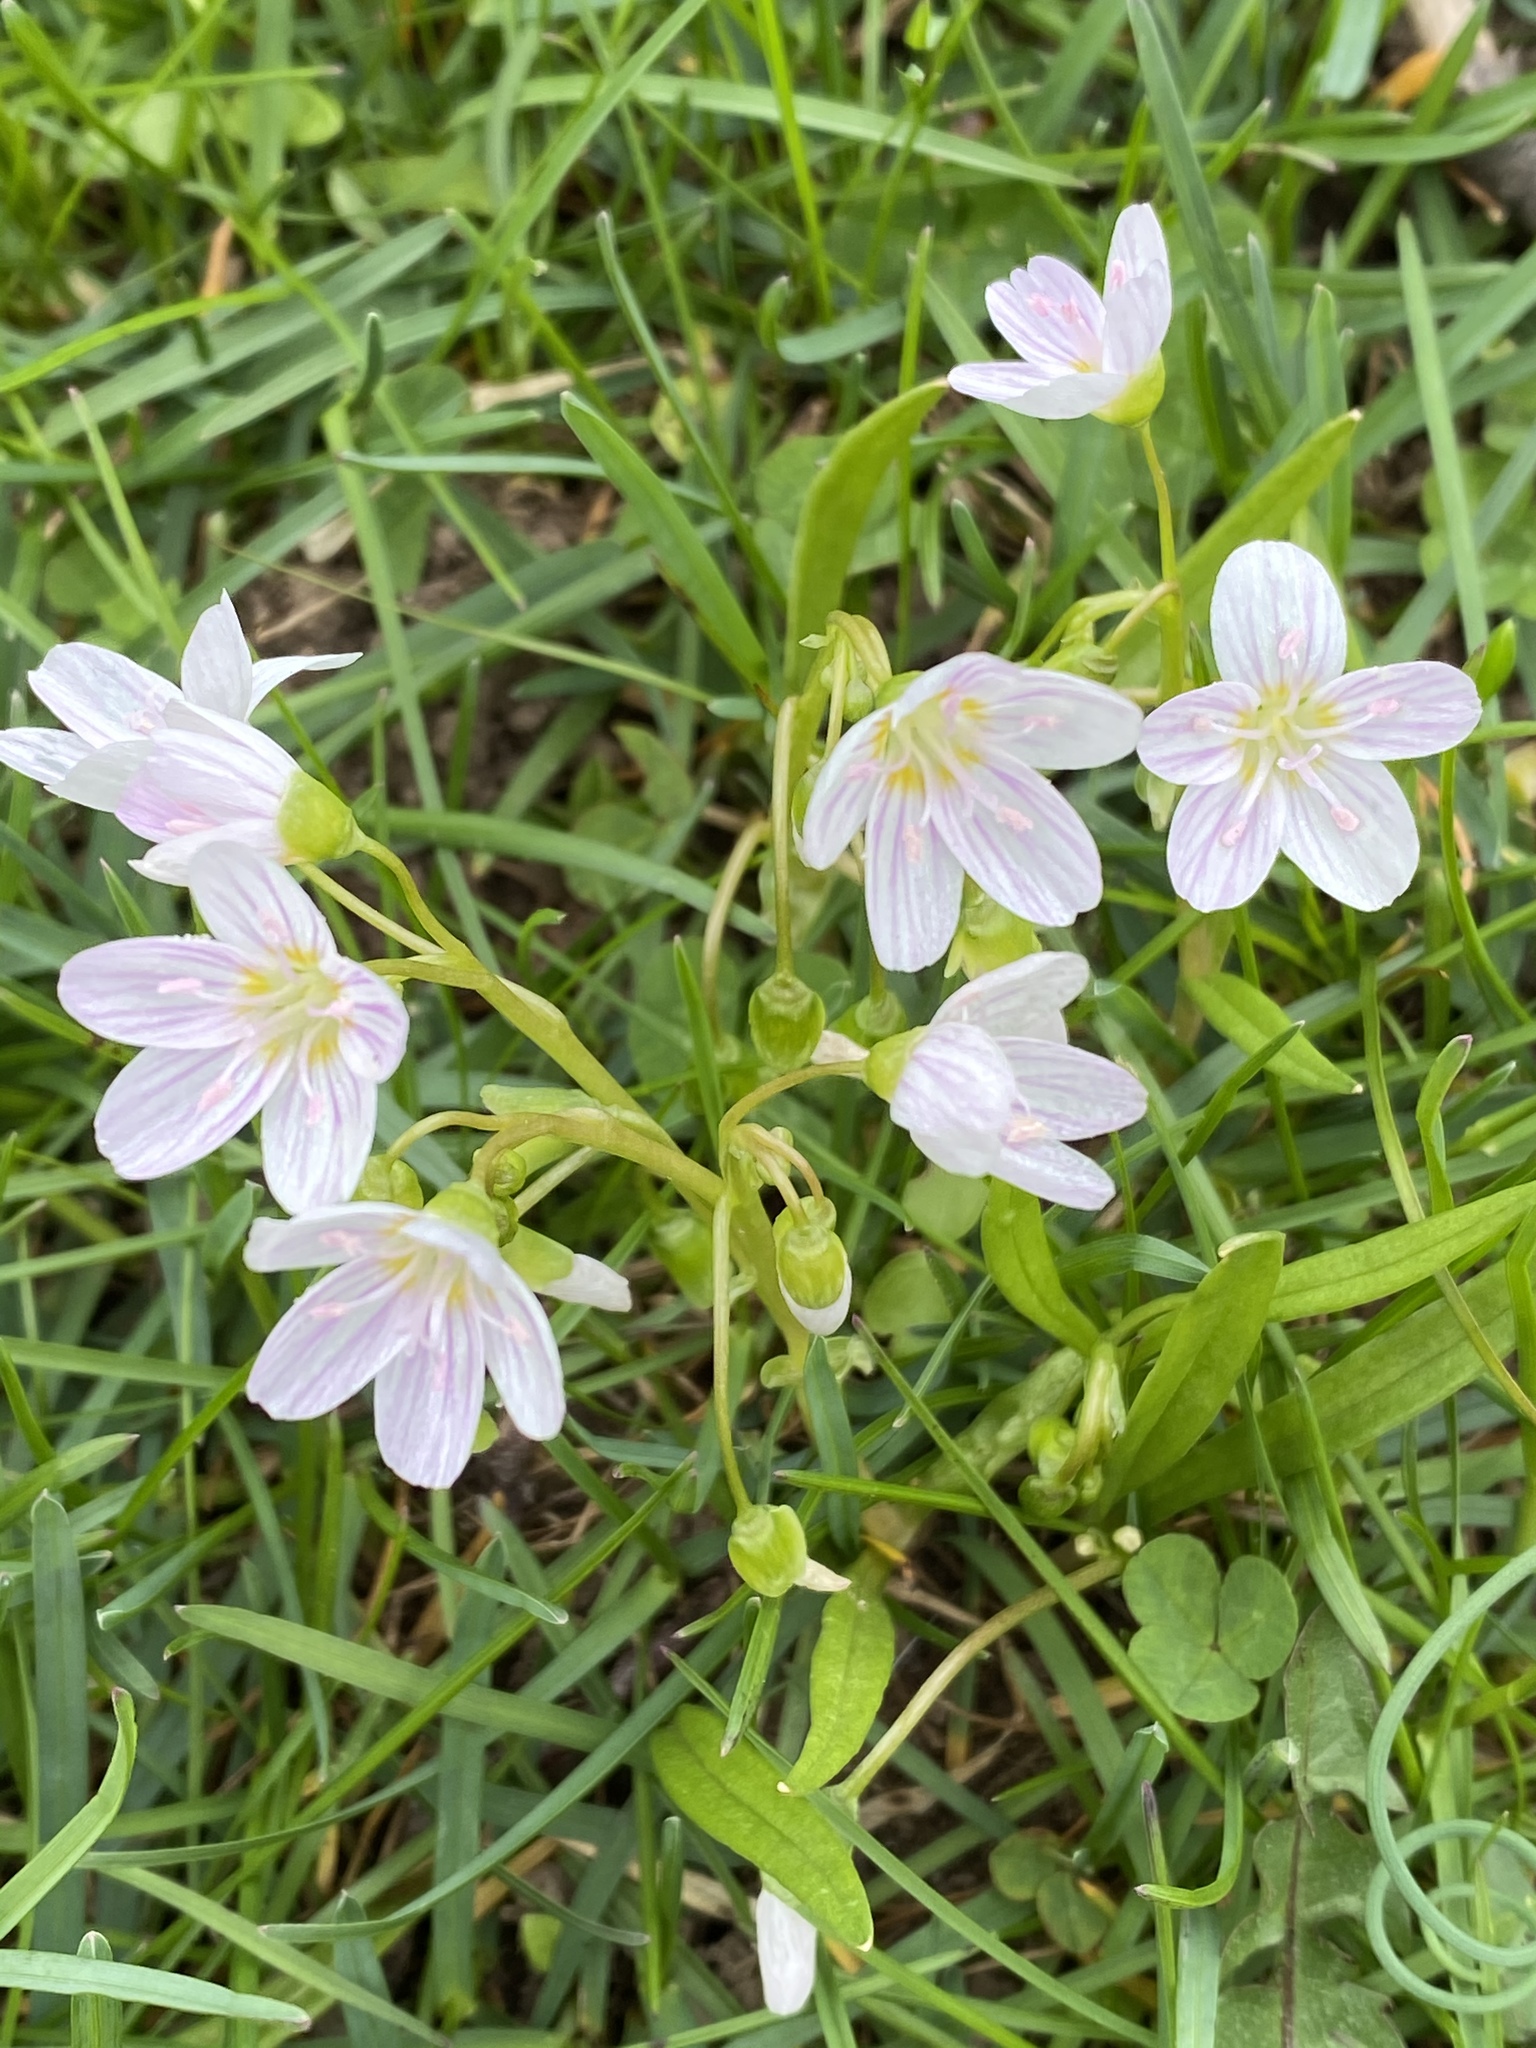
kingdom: Plantae
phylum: Tracheophyta
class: Magnoliopsida
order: Caryophyllales
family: Montiaceae
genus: Claytonia
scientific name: Claytonia virginica
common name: Virginia springbeauty
